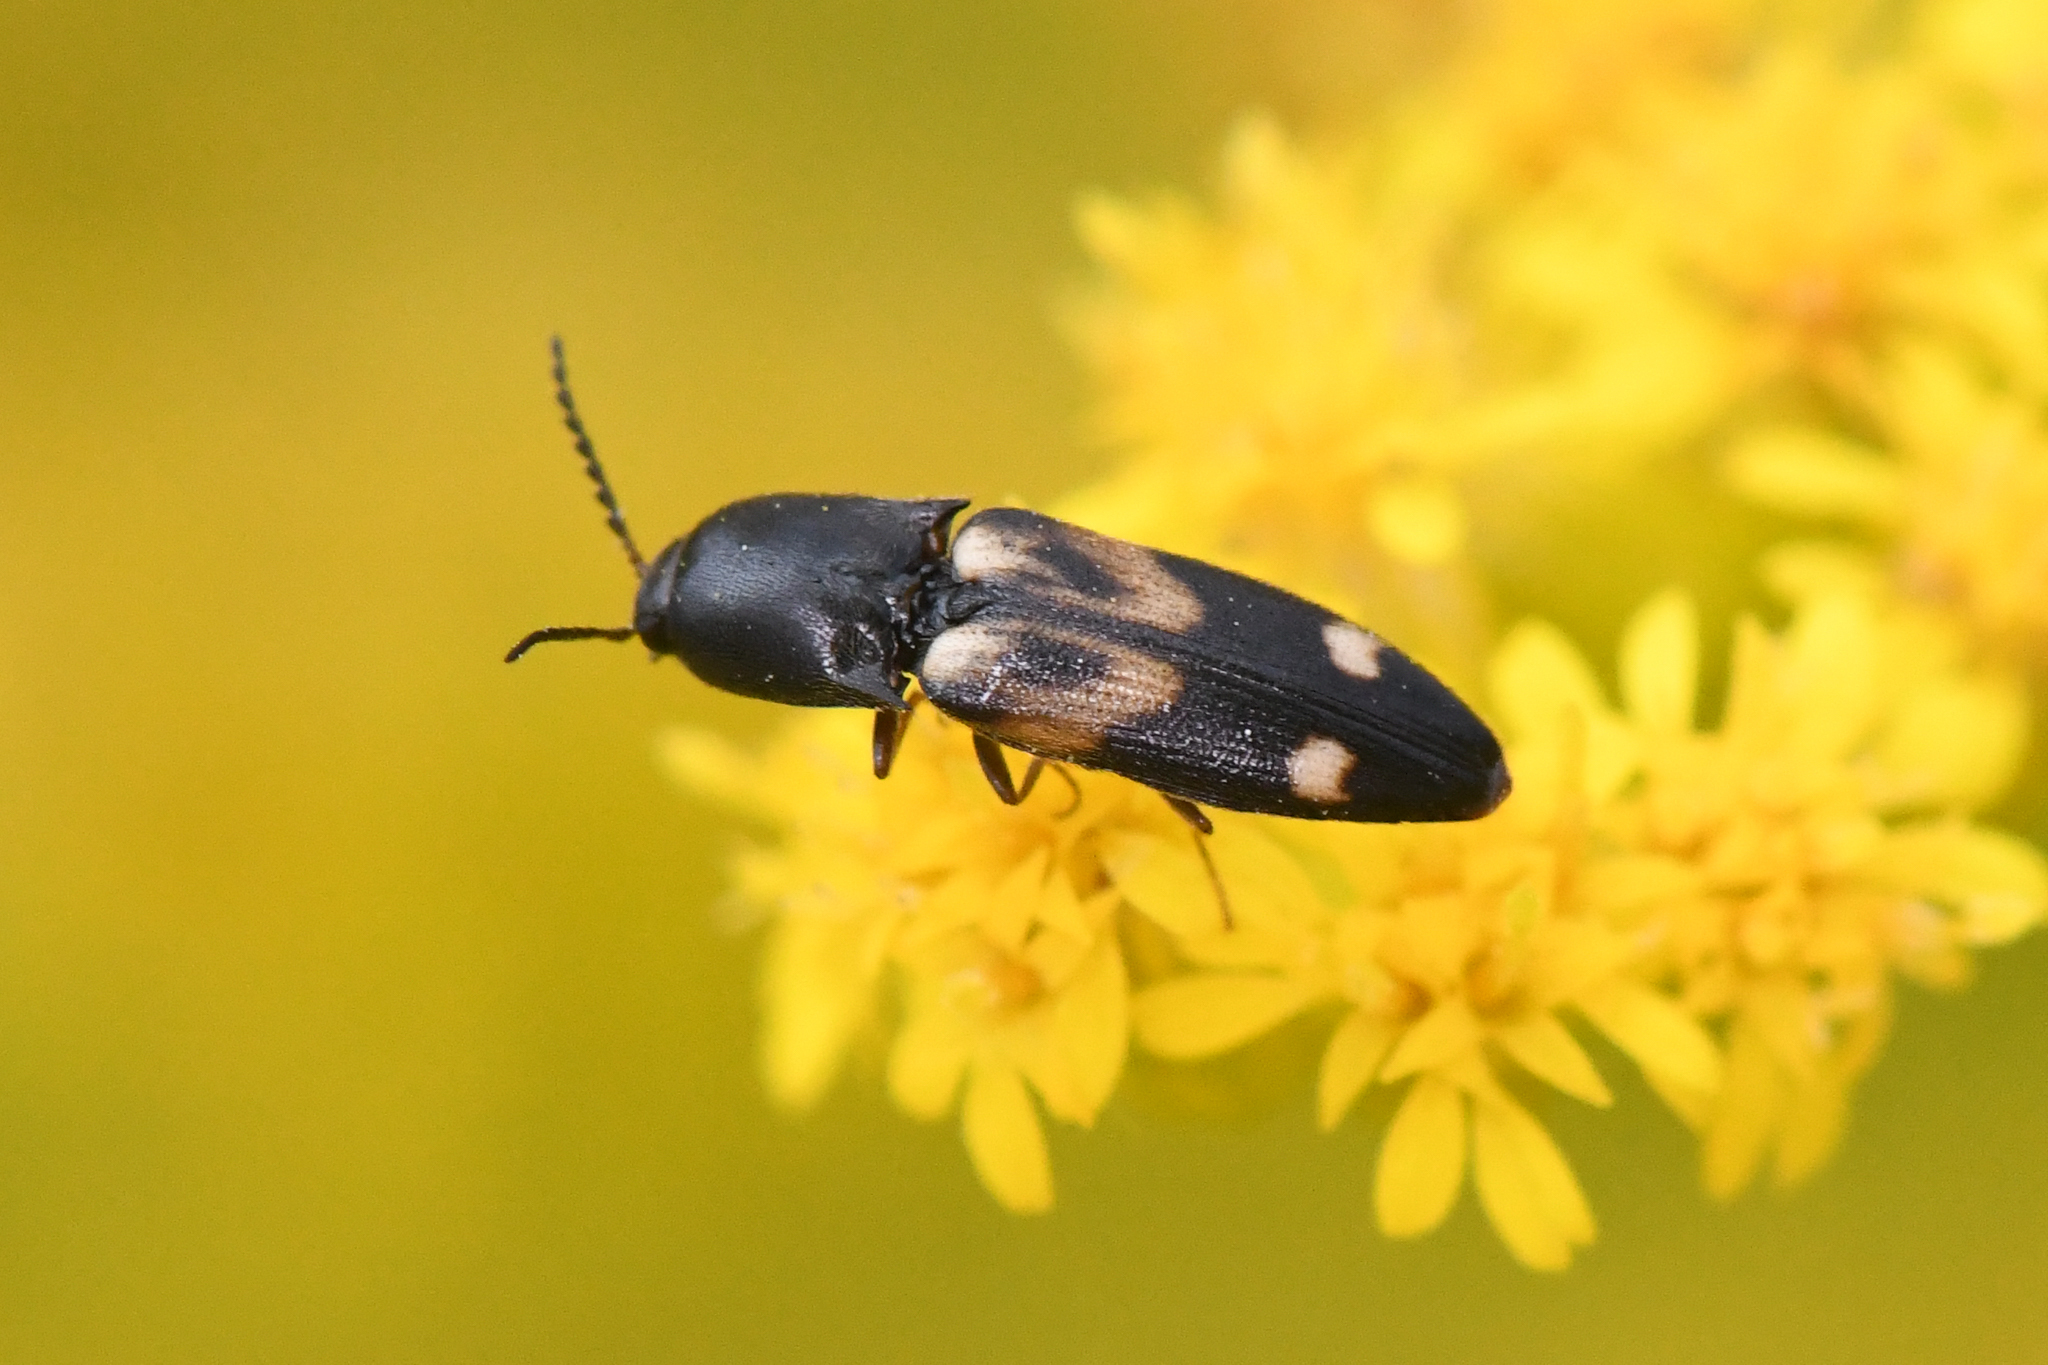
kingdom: Animalia
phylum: Arthropoda
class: Insecta
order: Coleoptera
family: Elateridae
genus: Megapenthes
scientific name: Megapenthes caprella
